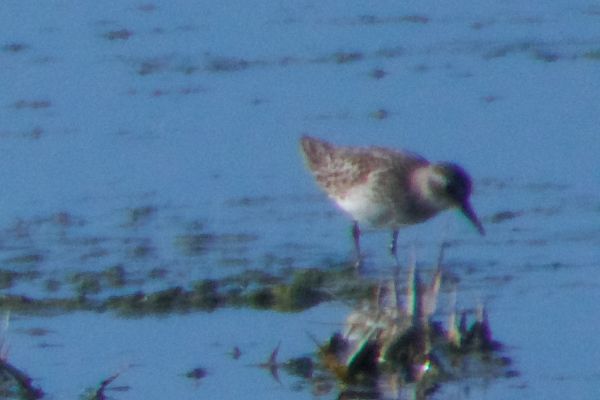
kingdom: Animalia
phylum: Chordata
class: Aves
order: Charadriiformes
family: Scolopacidae
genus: Calidris
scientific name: Calidris minutilla
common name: Least sandpiper
